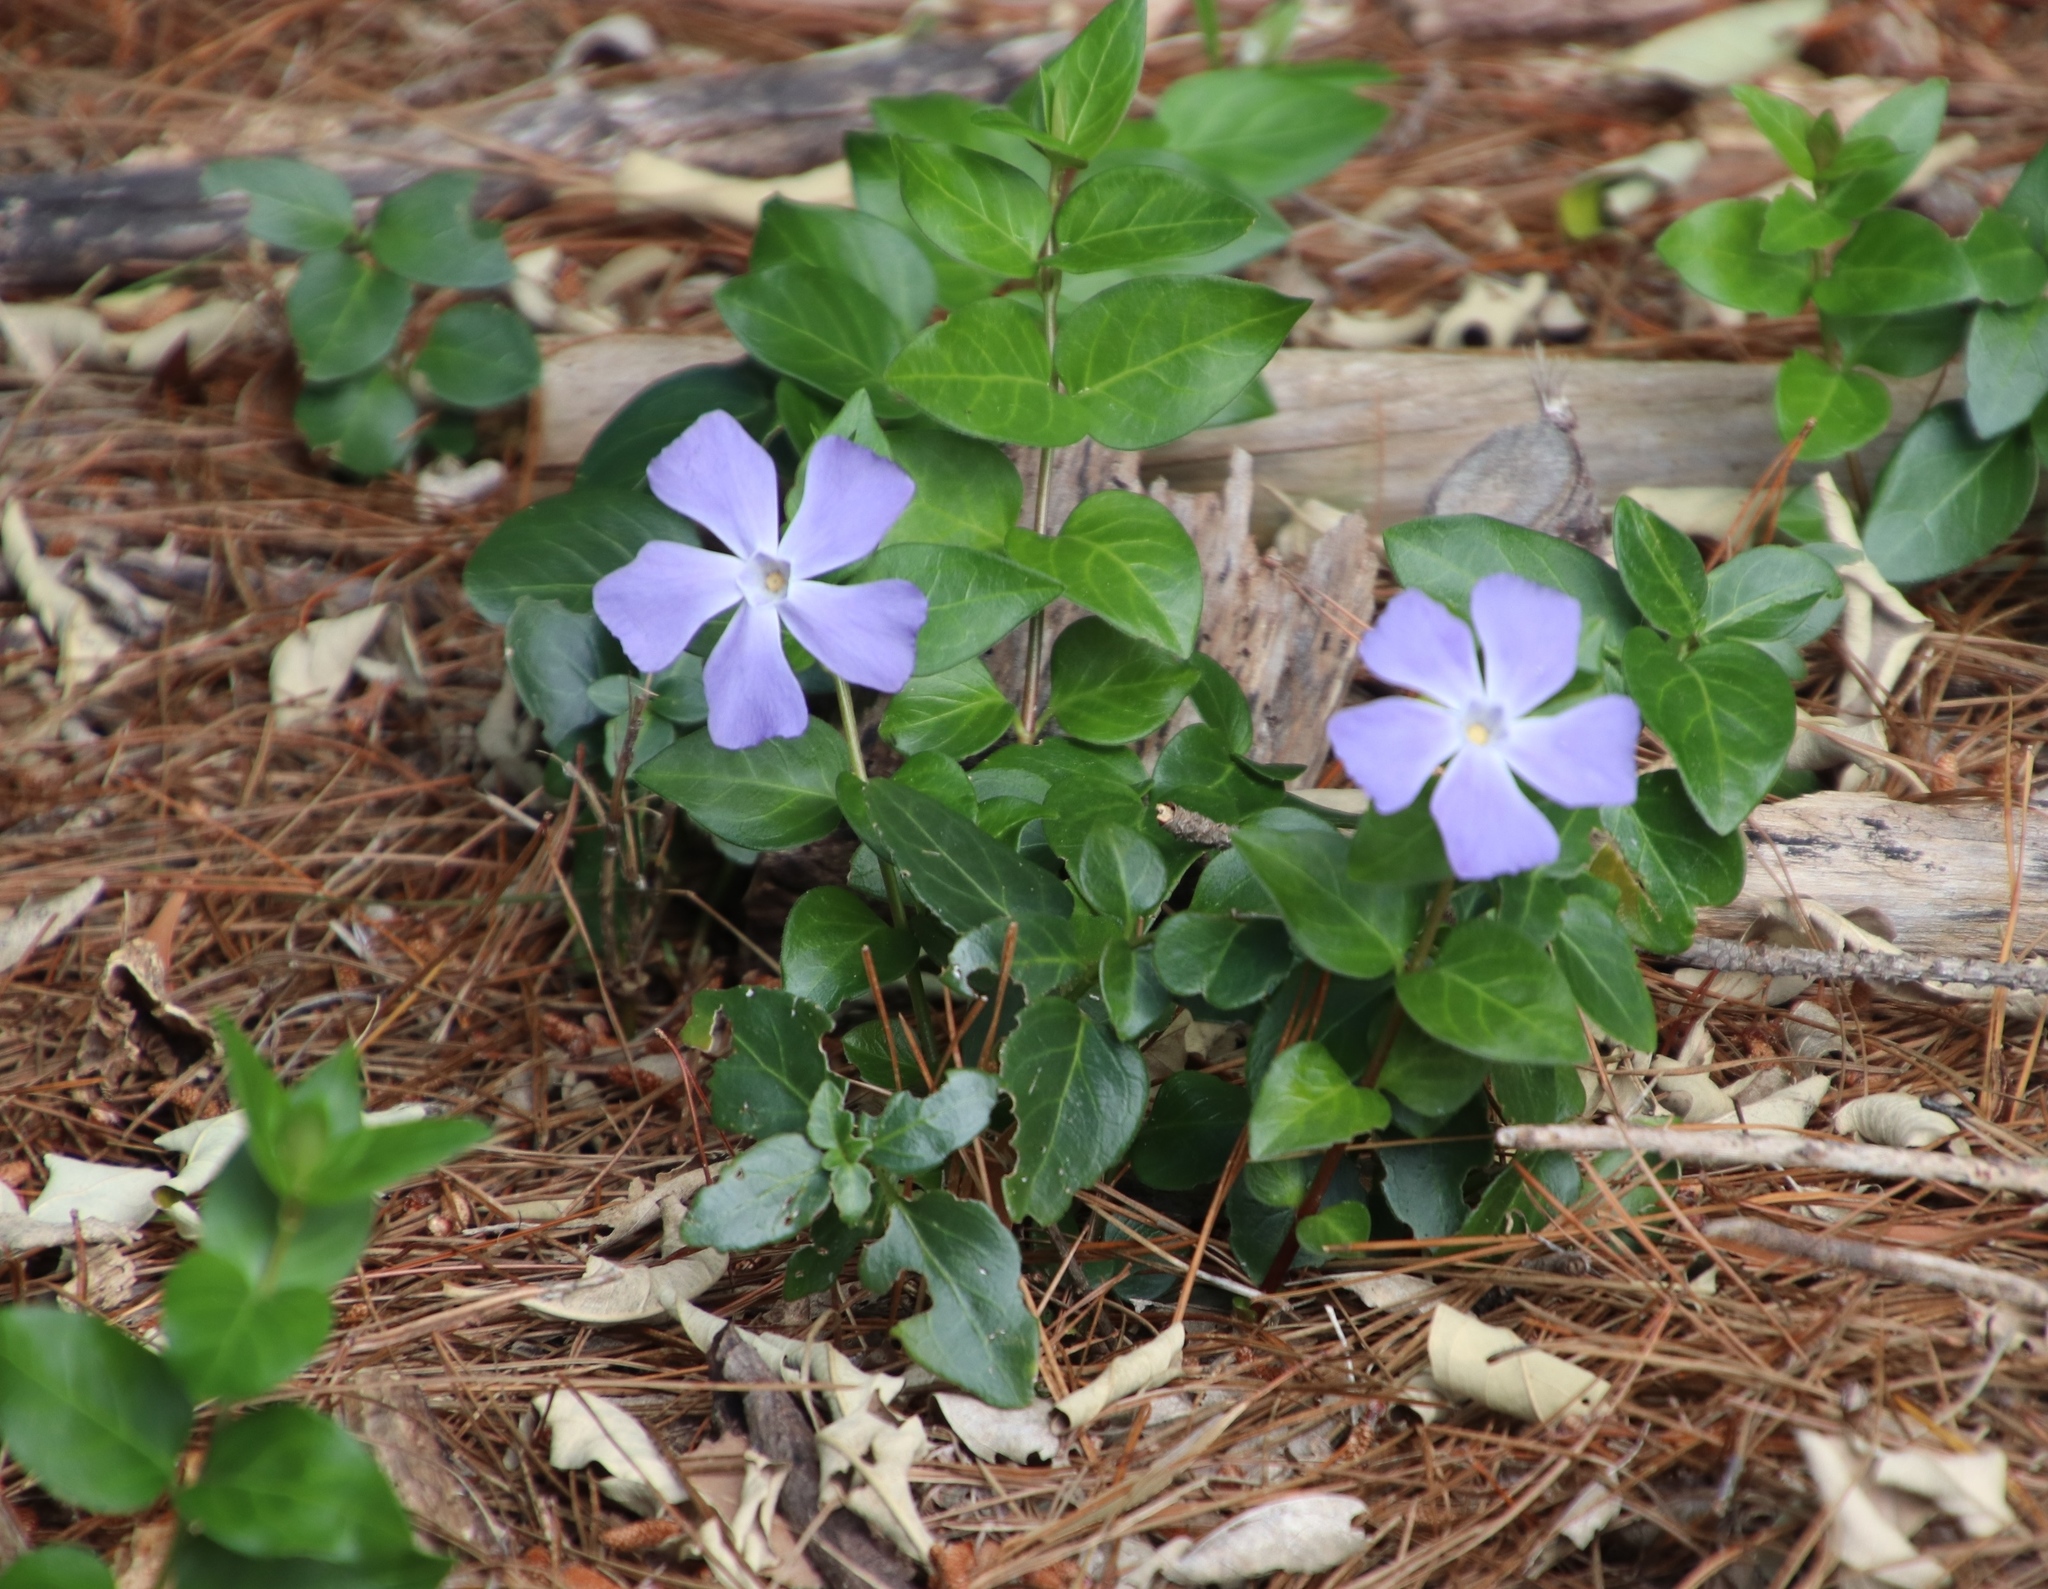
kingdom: Plantae
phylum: Tracheophyta
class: Magnoliopsida
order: Gentianales
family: Apocynaceae
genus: Vinca
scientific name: Vinca major
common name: Greater periwinkle
